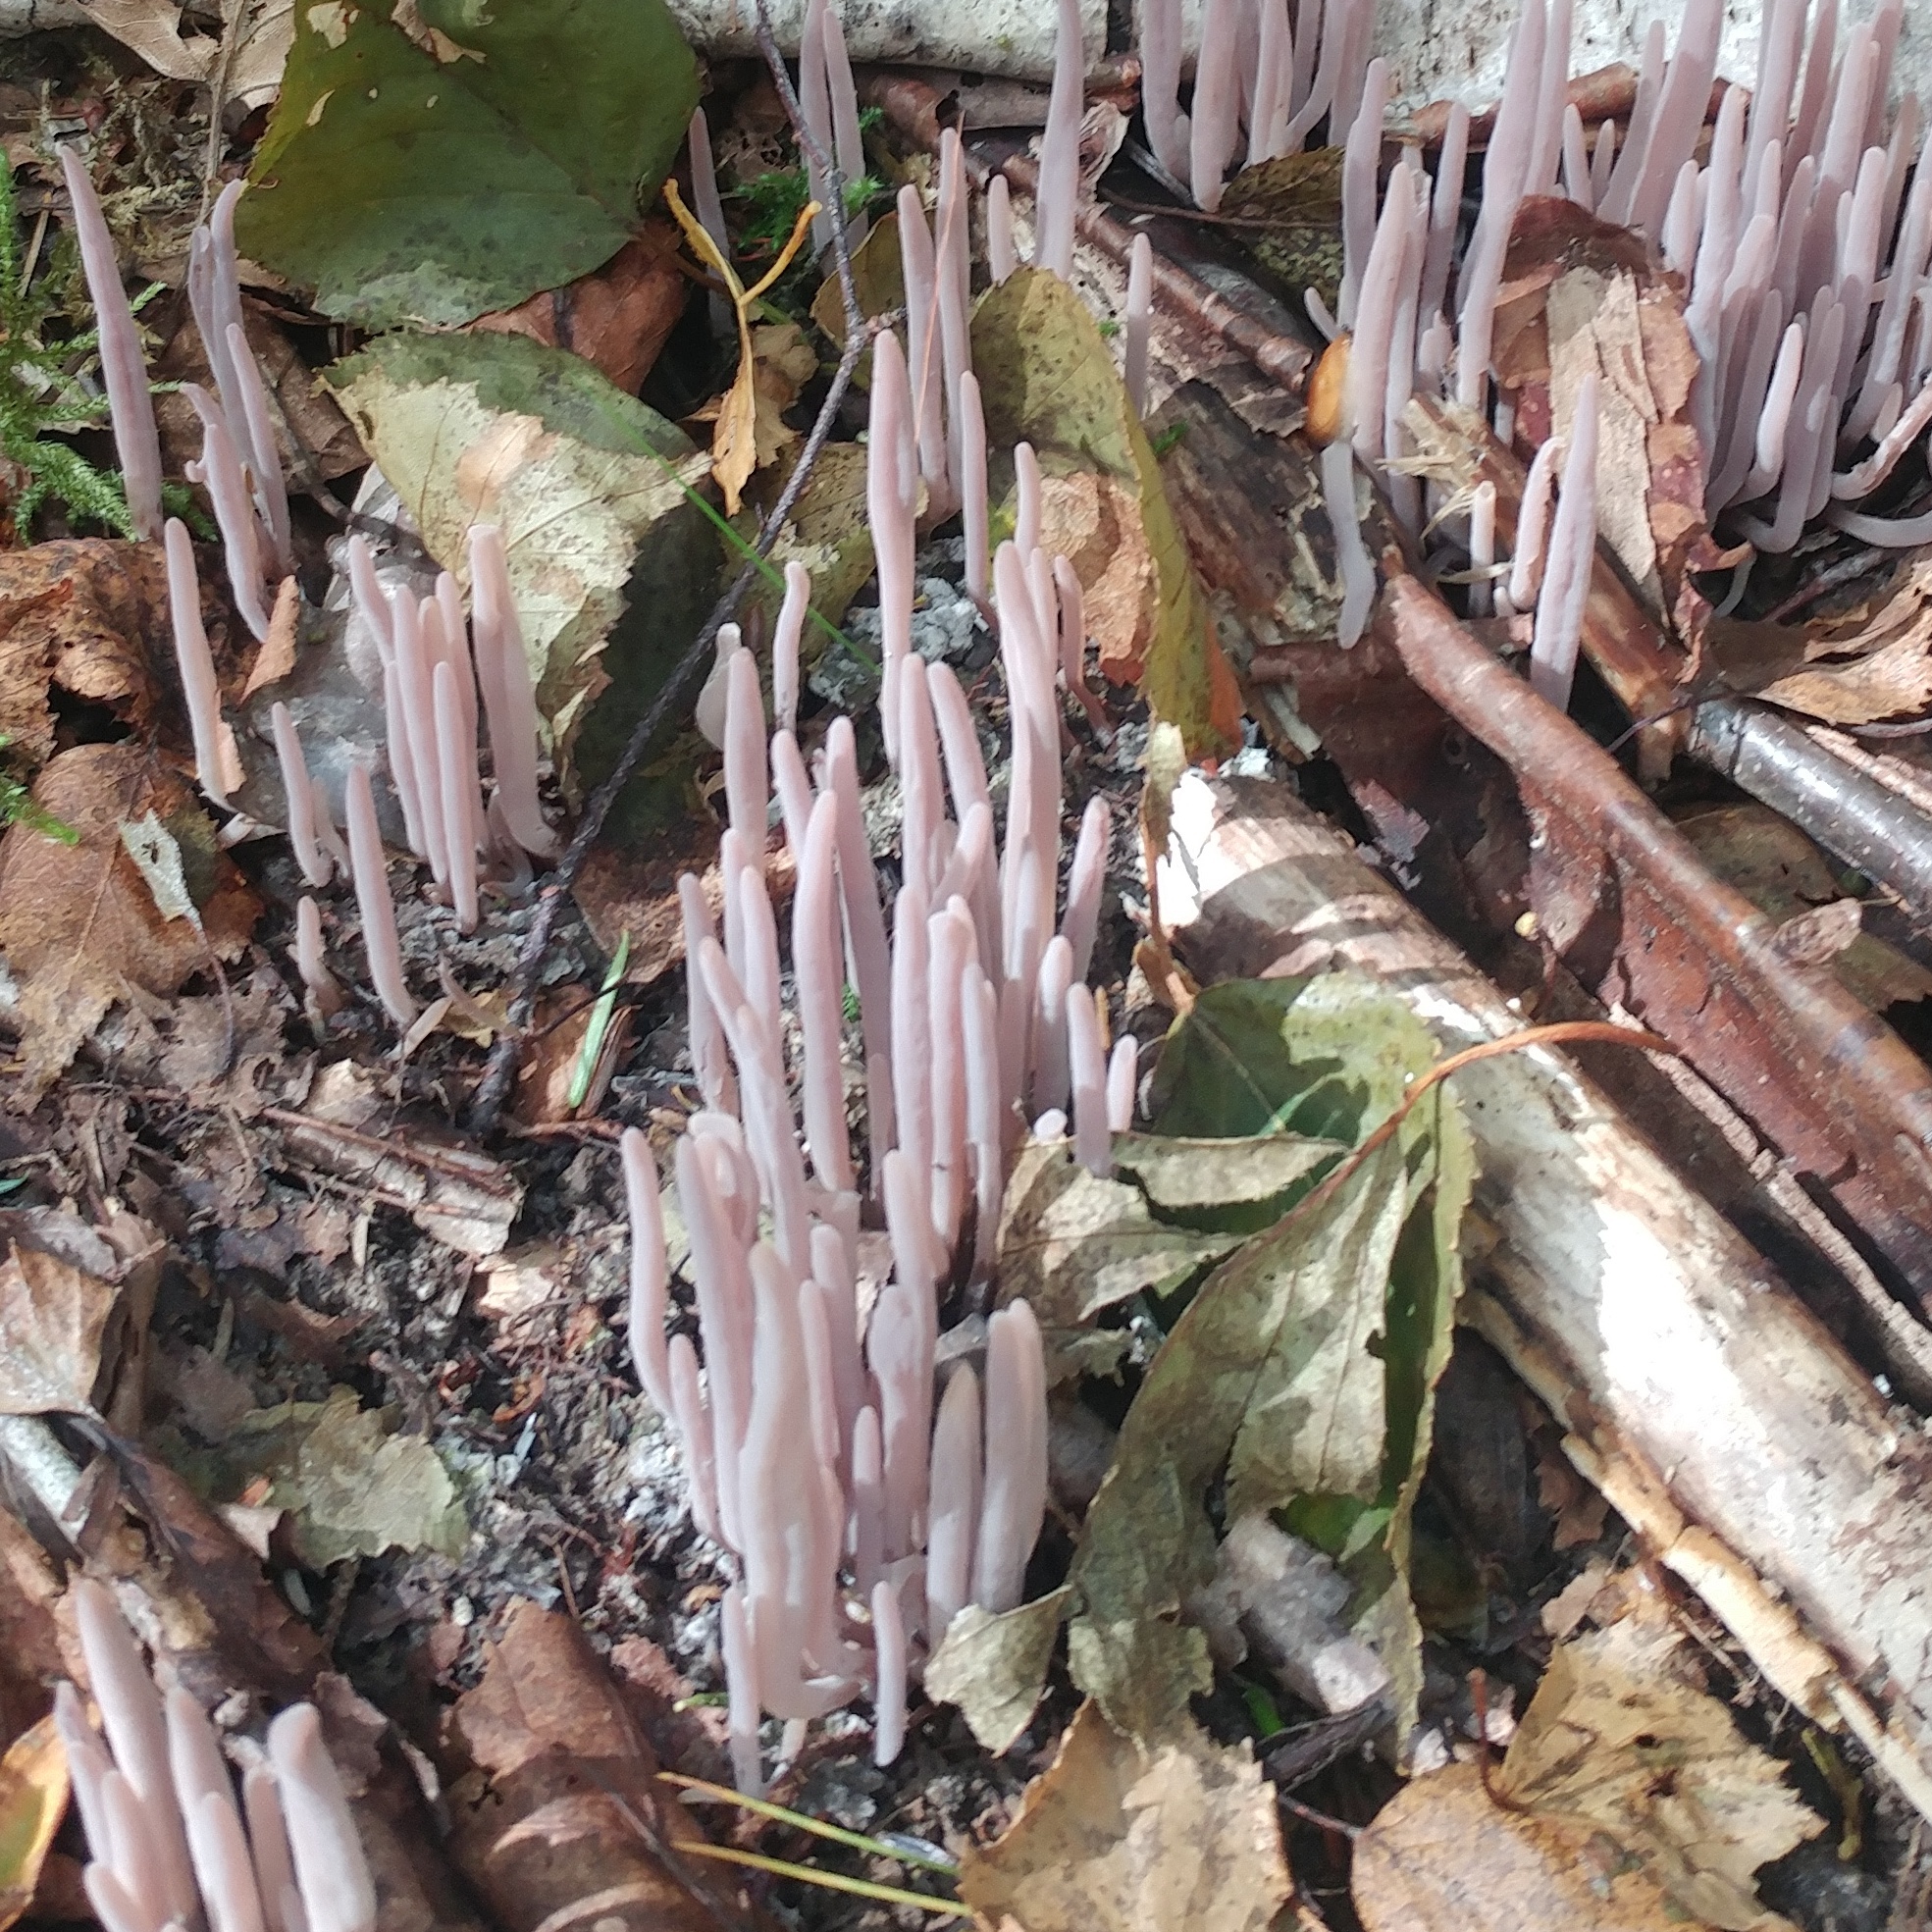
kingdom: Fungi
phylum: Basidiomycota
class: Agaricomycetes
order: Hymenochaetales
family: Rickenellaceae
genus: Alloclavaria
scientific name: Alloclavaria purpurea
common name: Purple spindles
